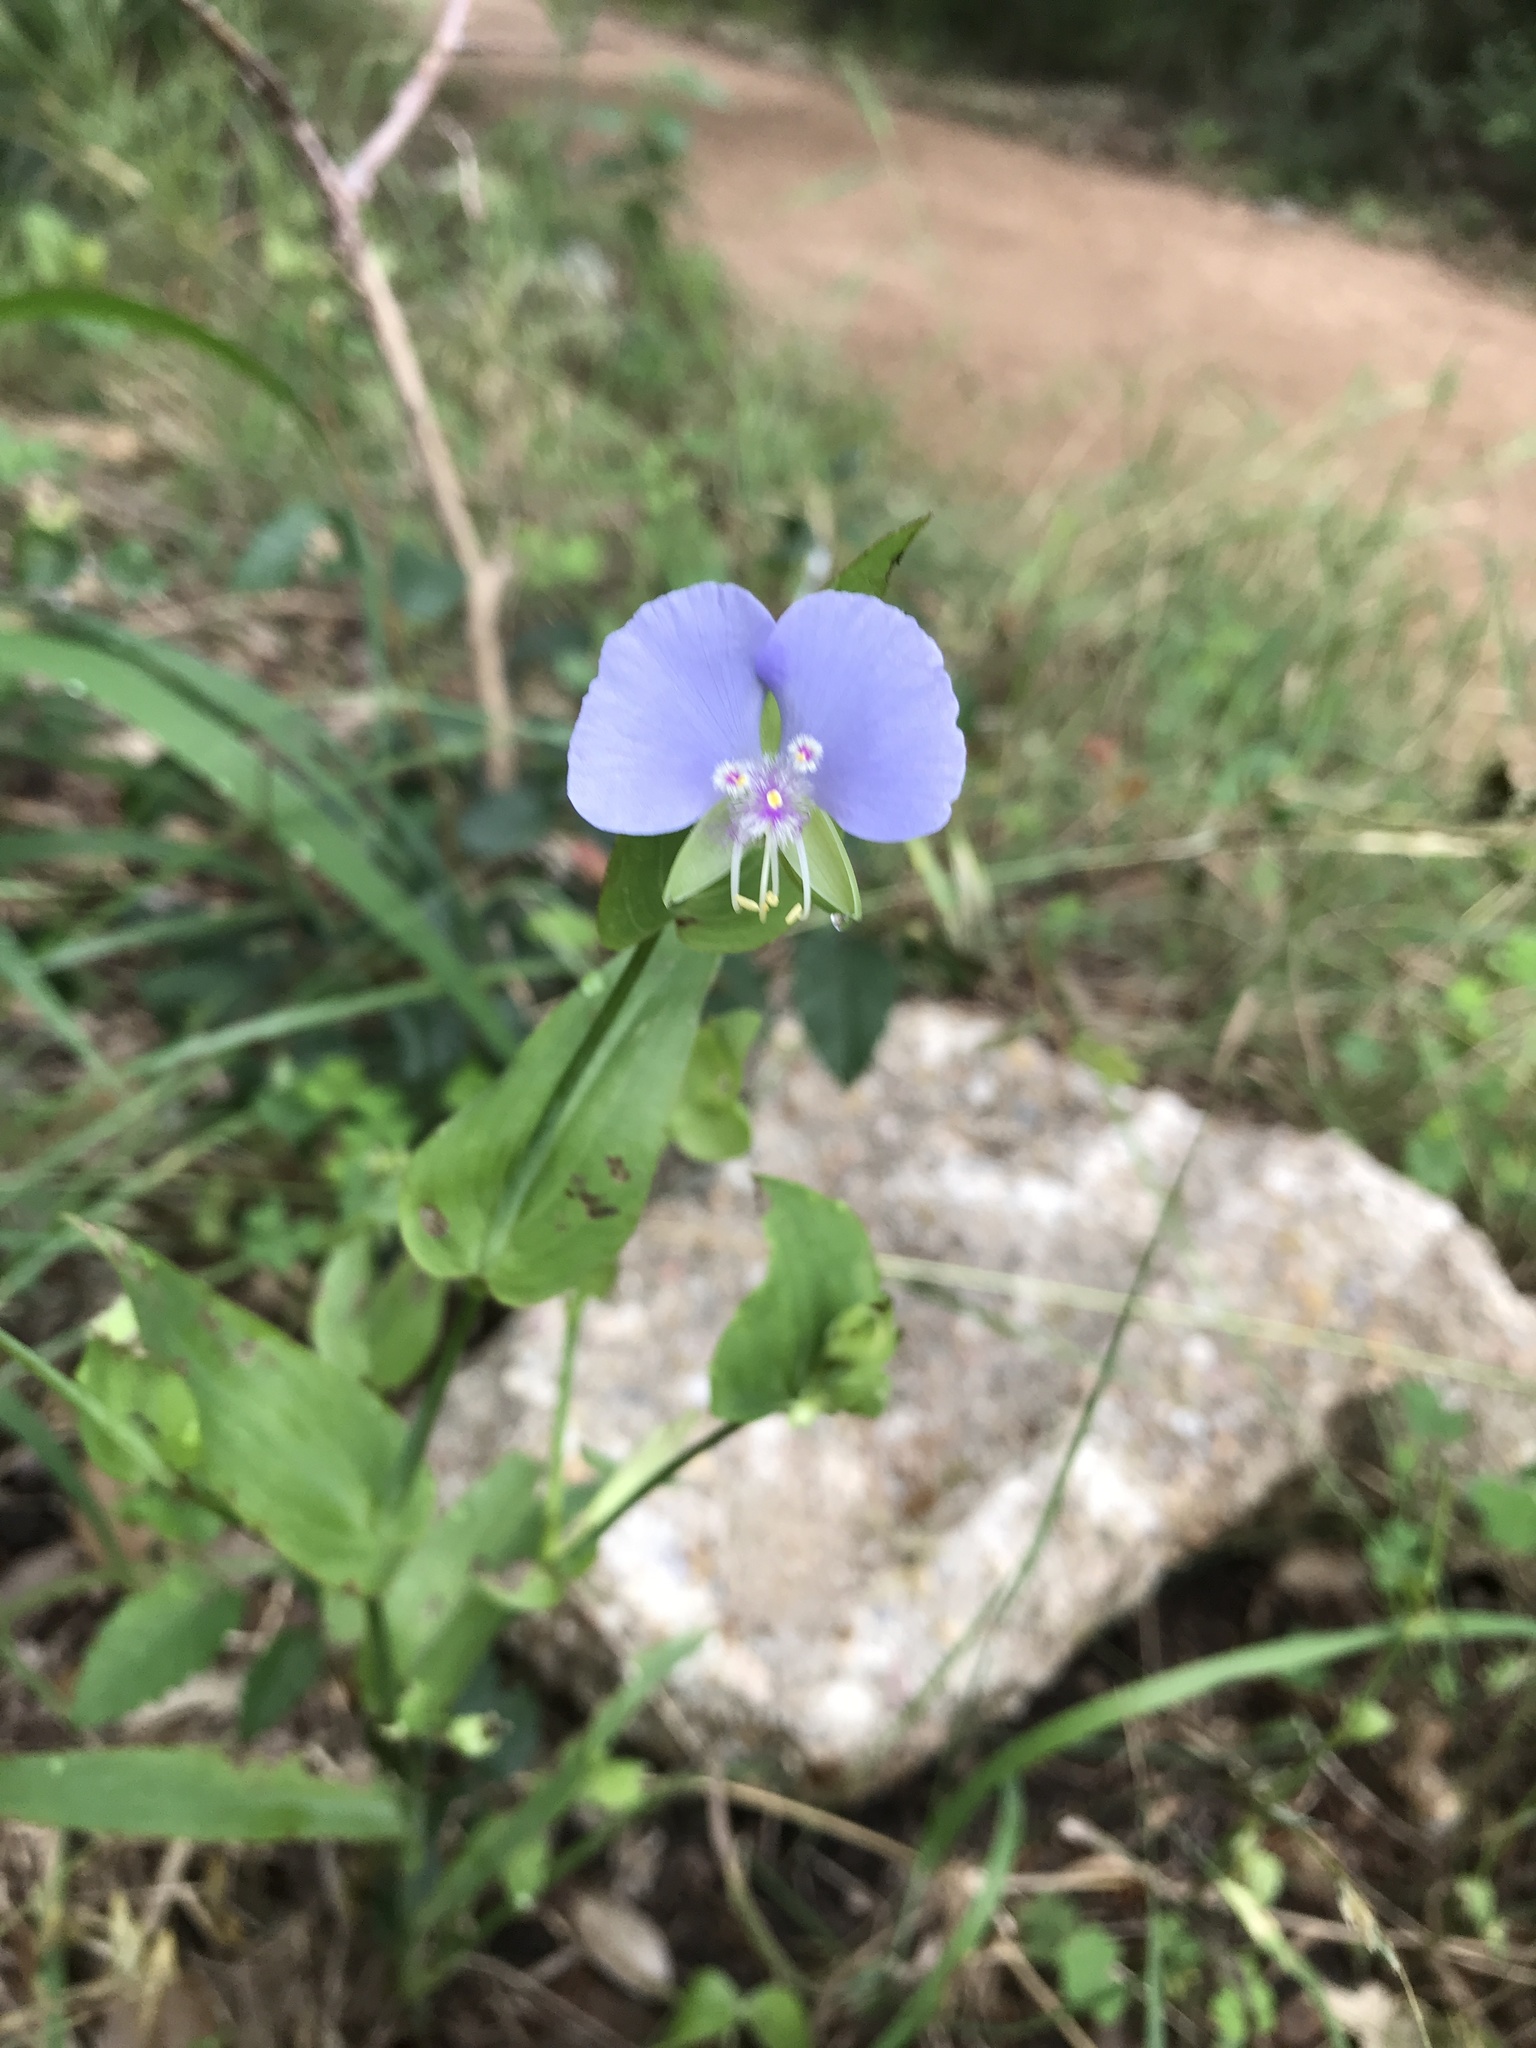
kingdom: Plantae
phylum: Tracheophyta
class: Liliopsida
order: Commelinales
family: Commelinaceae
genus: Tinantia
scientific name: Tinantia anomala
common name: False dayflower
